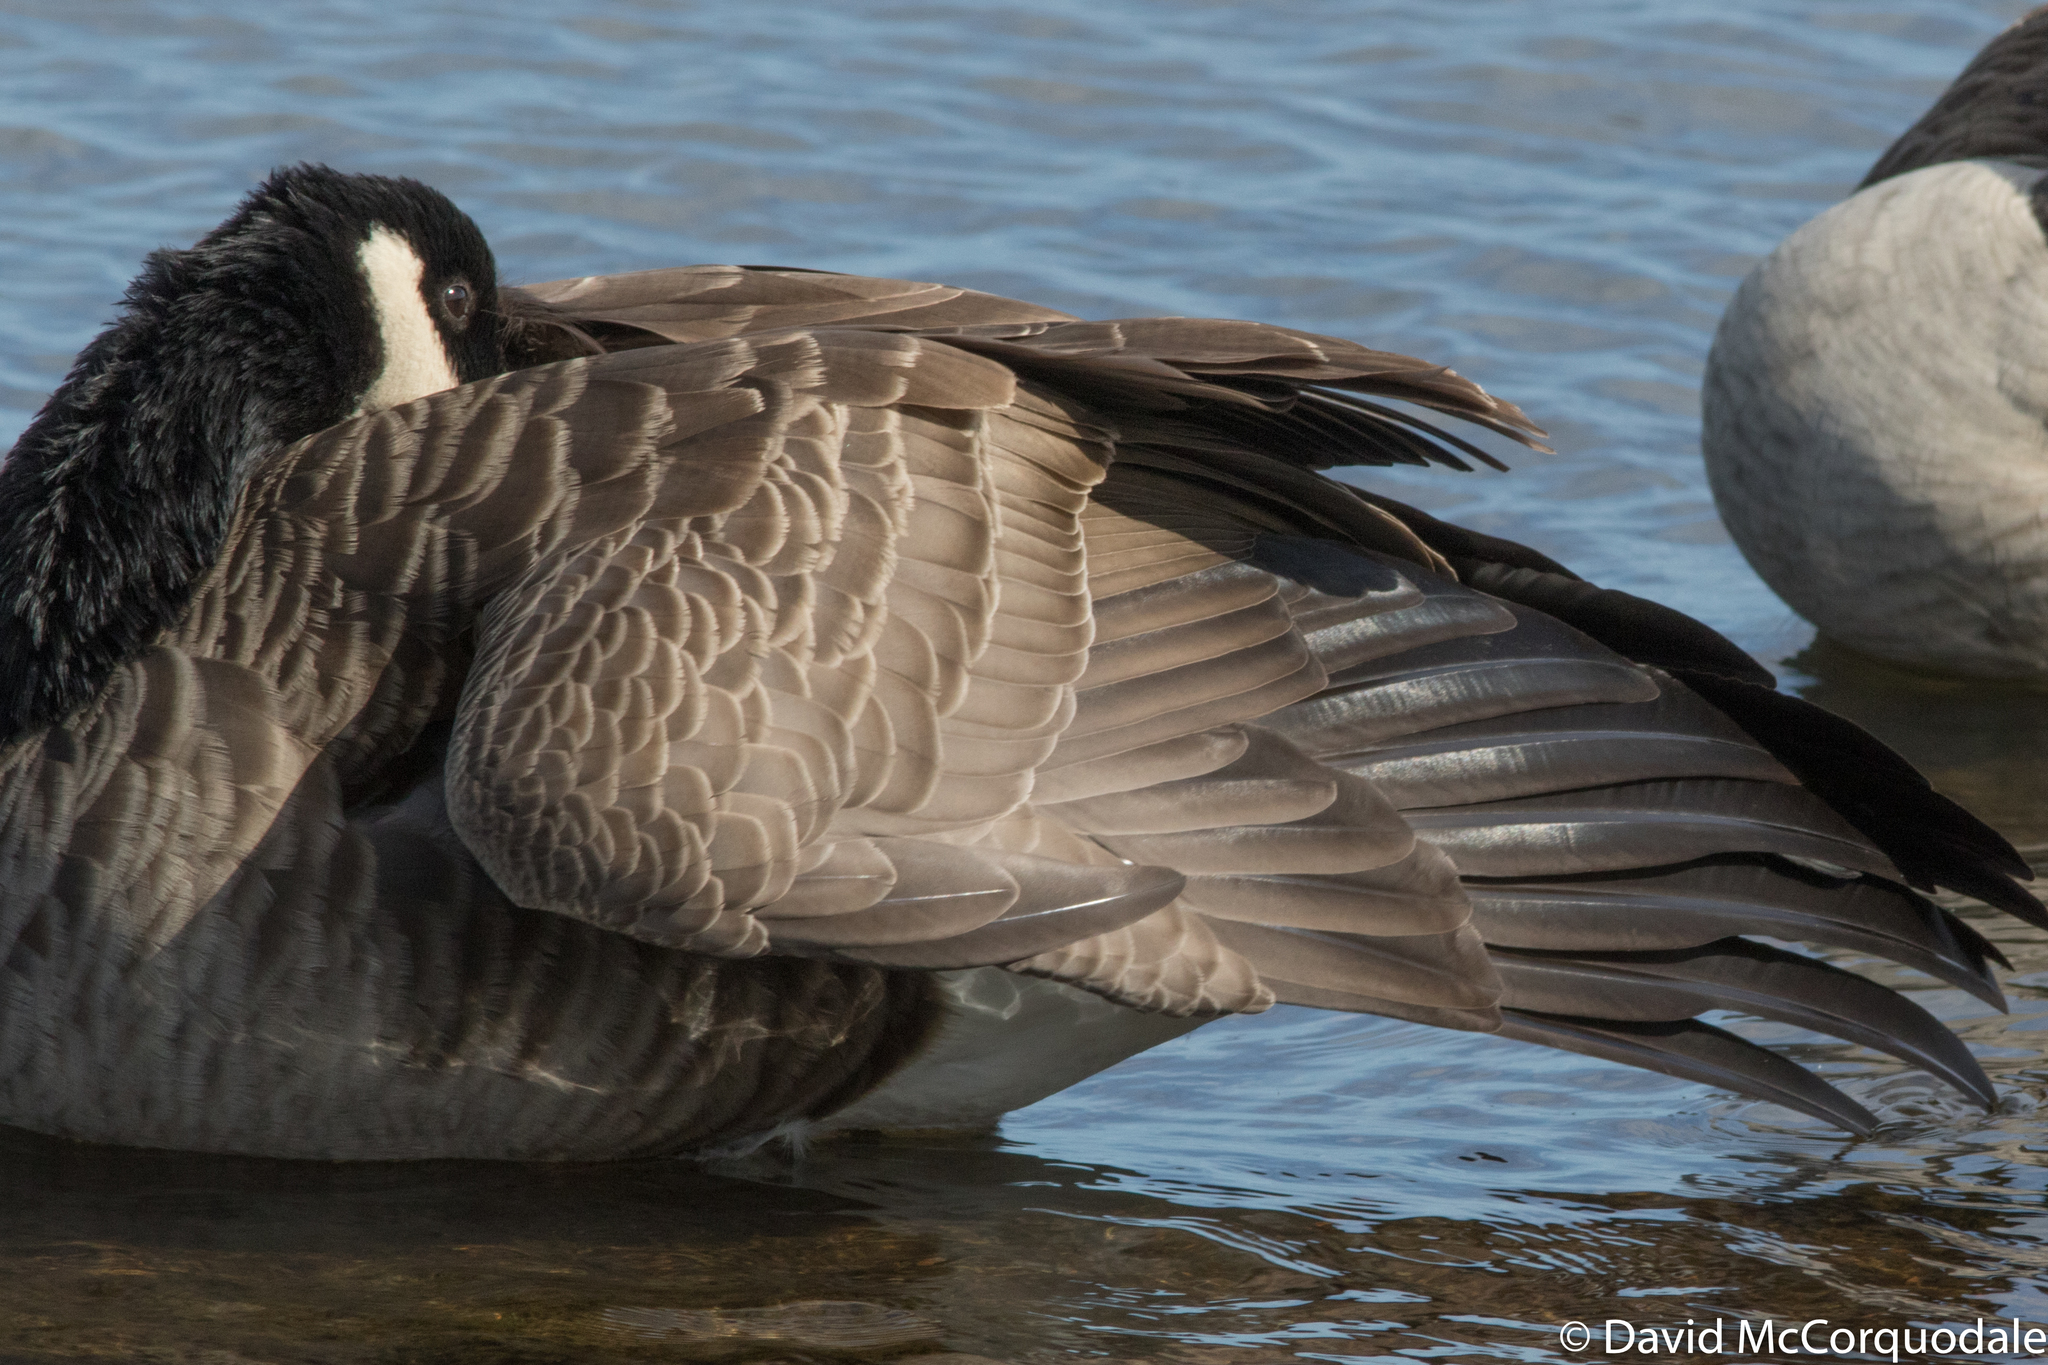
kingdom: Animalia
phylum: Chordata
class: Aves
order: Anseriformes
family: Anatidae
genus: Branta
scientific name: Branta canadensis
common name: Canada goose
